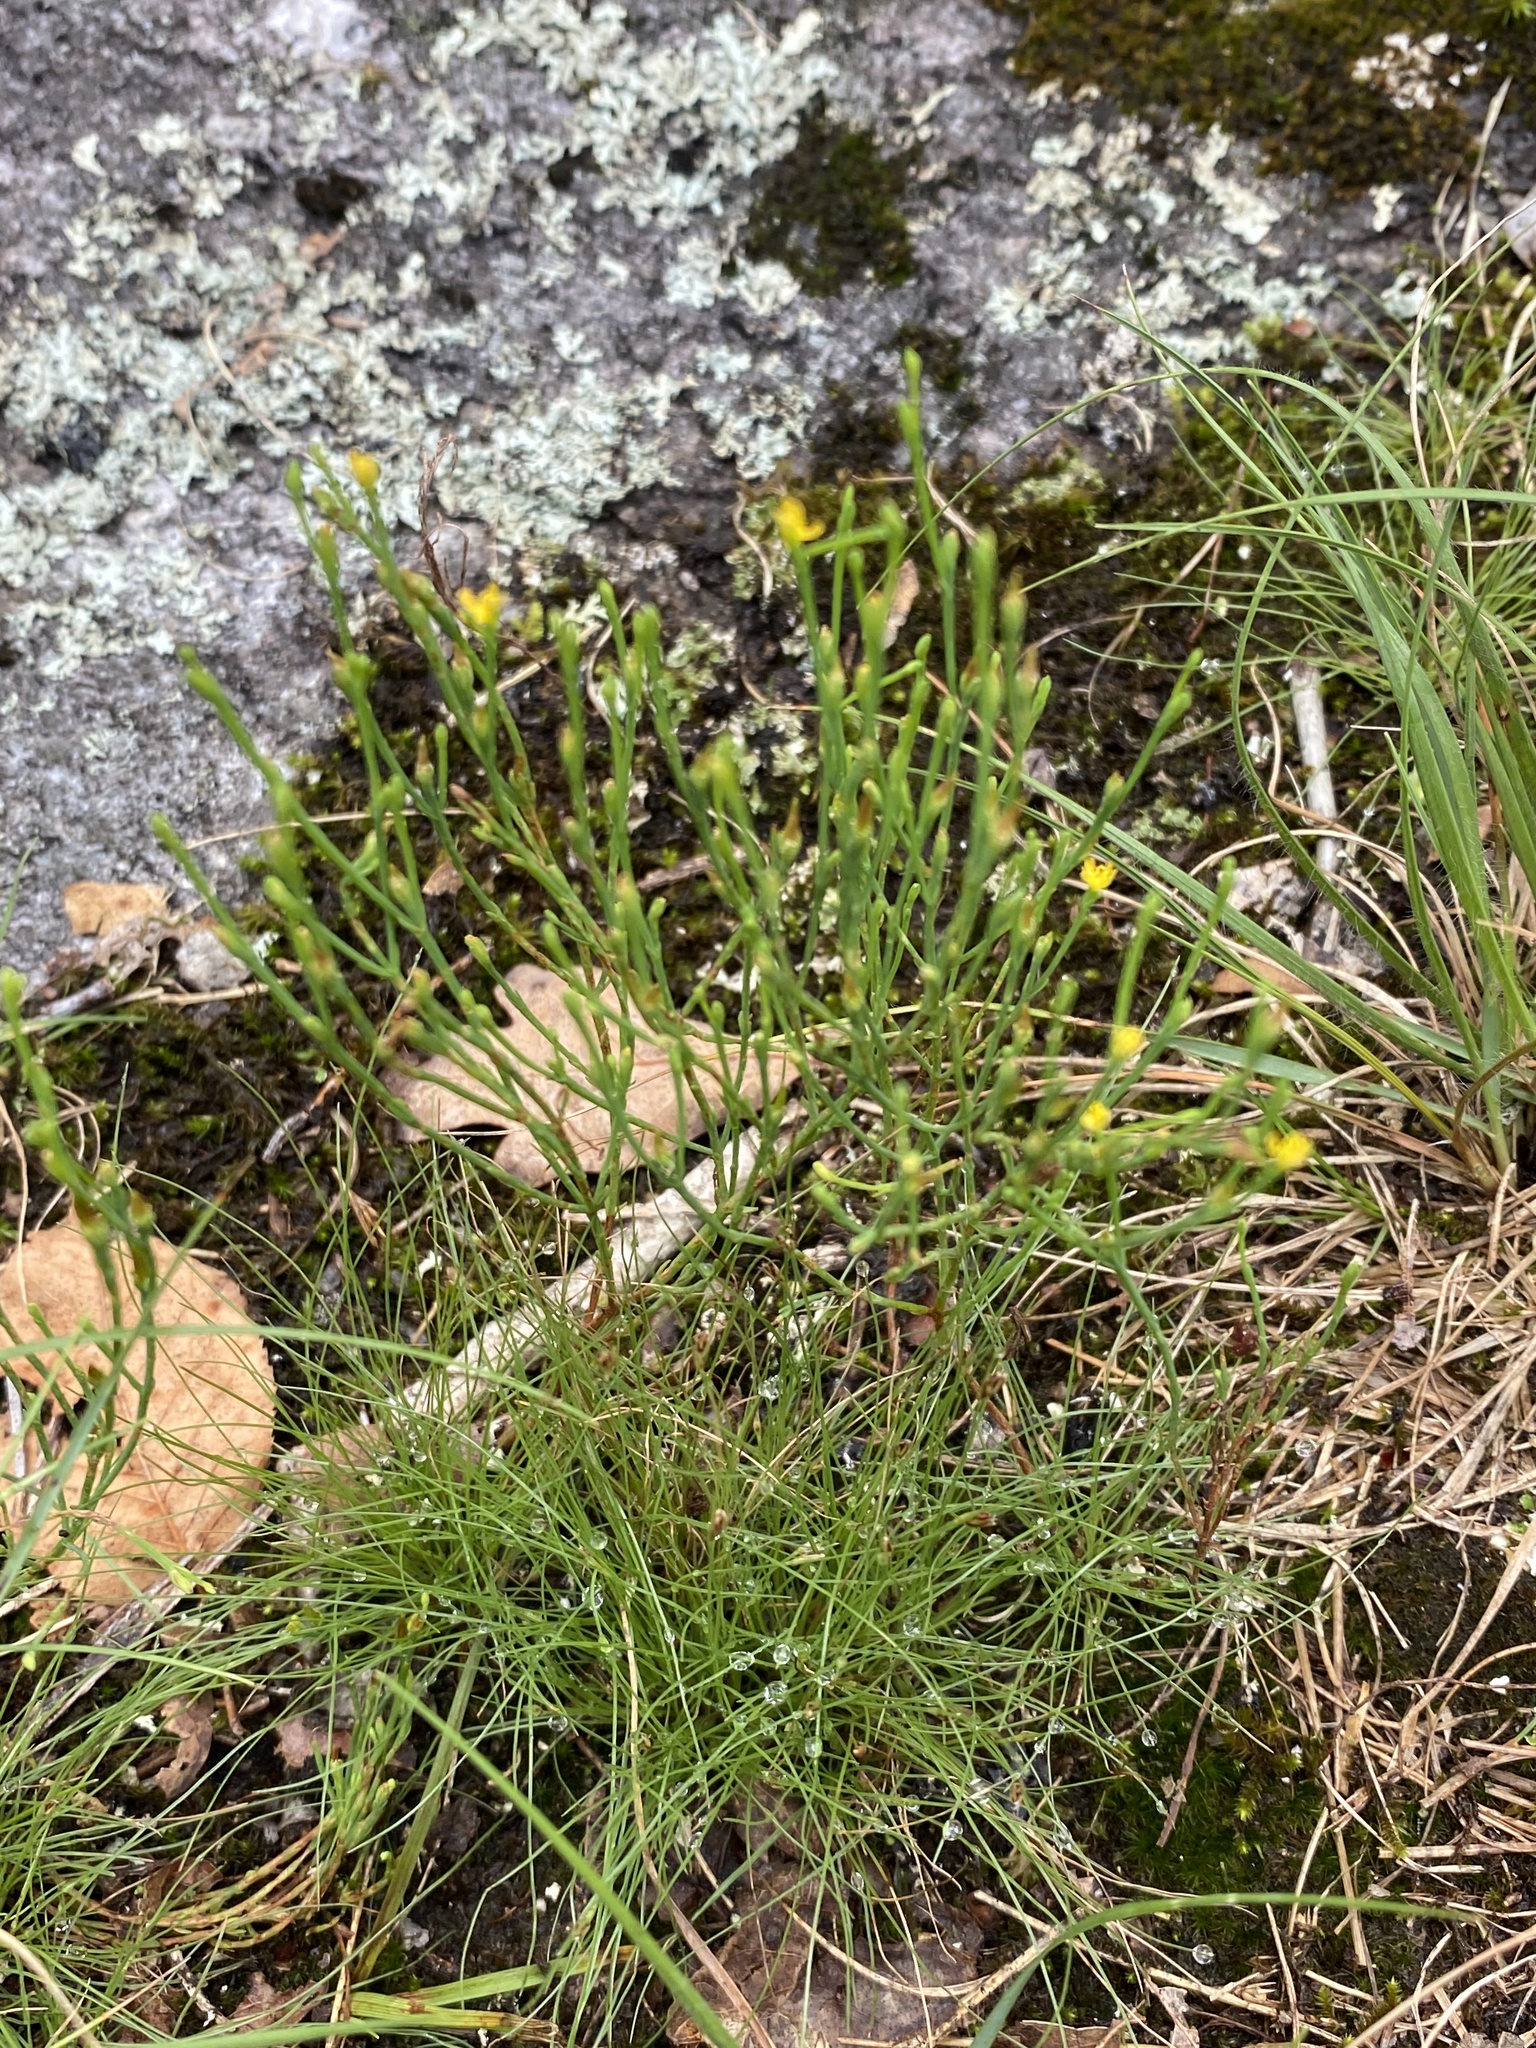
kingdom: Plantae
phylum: Tracheophyta
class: Magnoliopsida
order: Malpighiales
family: Hypericaceae
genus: Hypericum
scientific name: Hypericum gentianoides
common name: Gentian-leaved st. john's-wort
